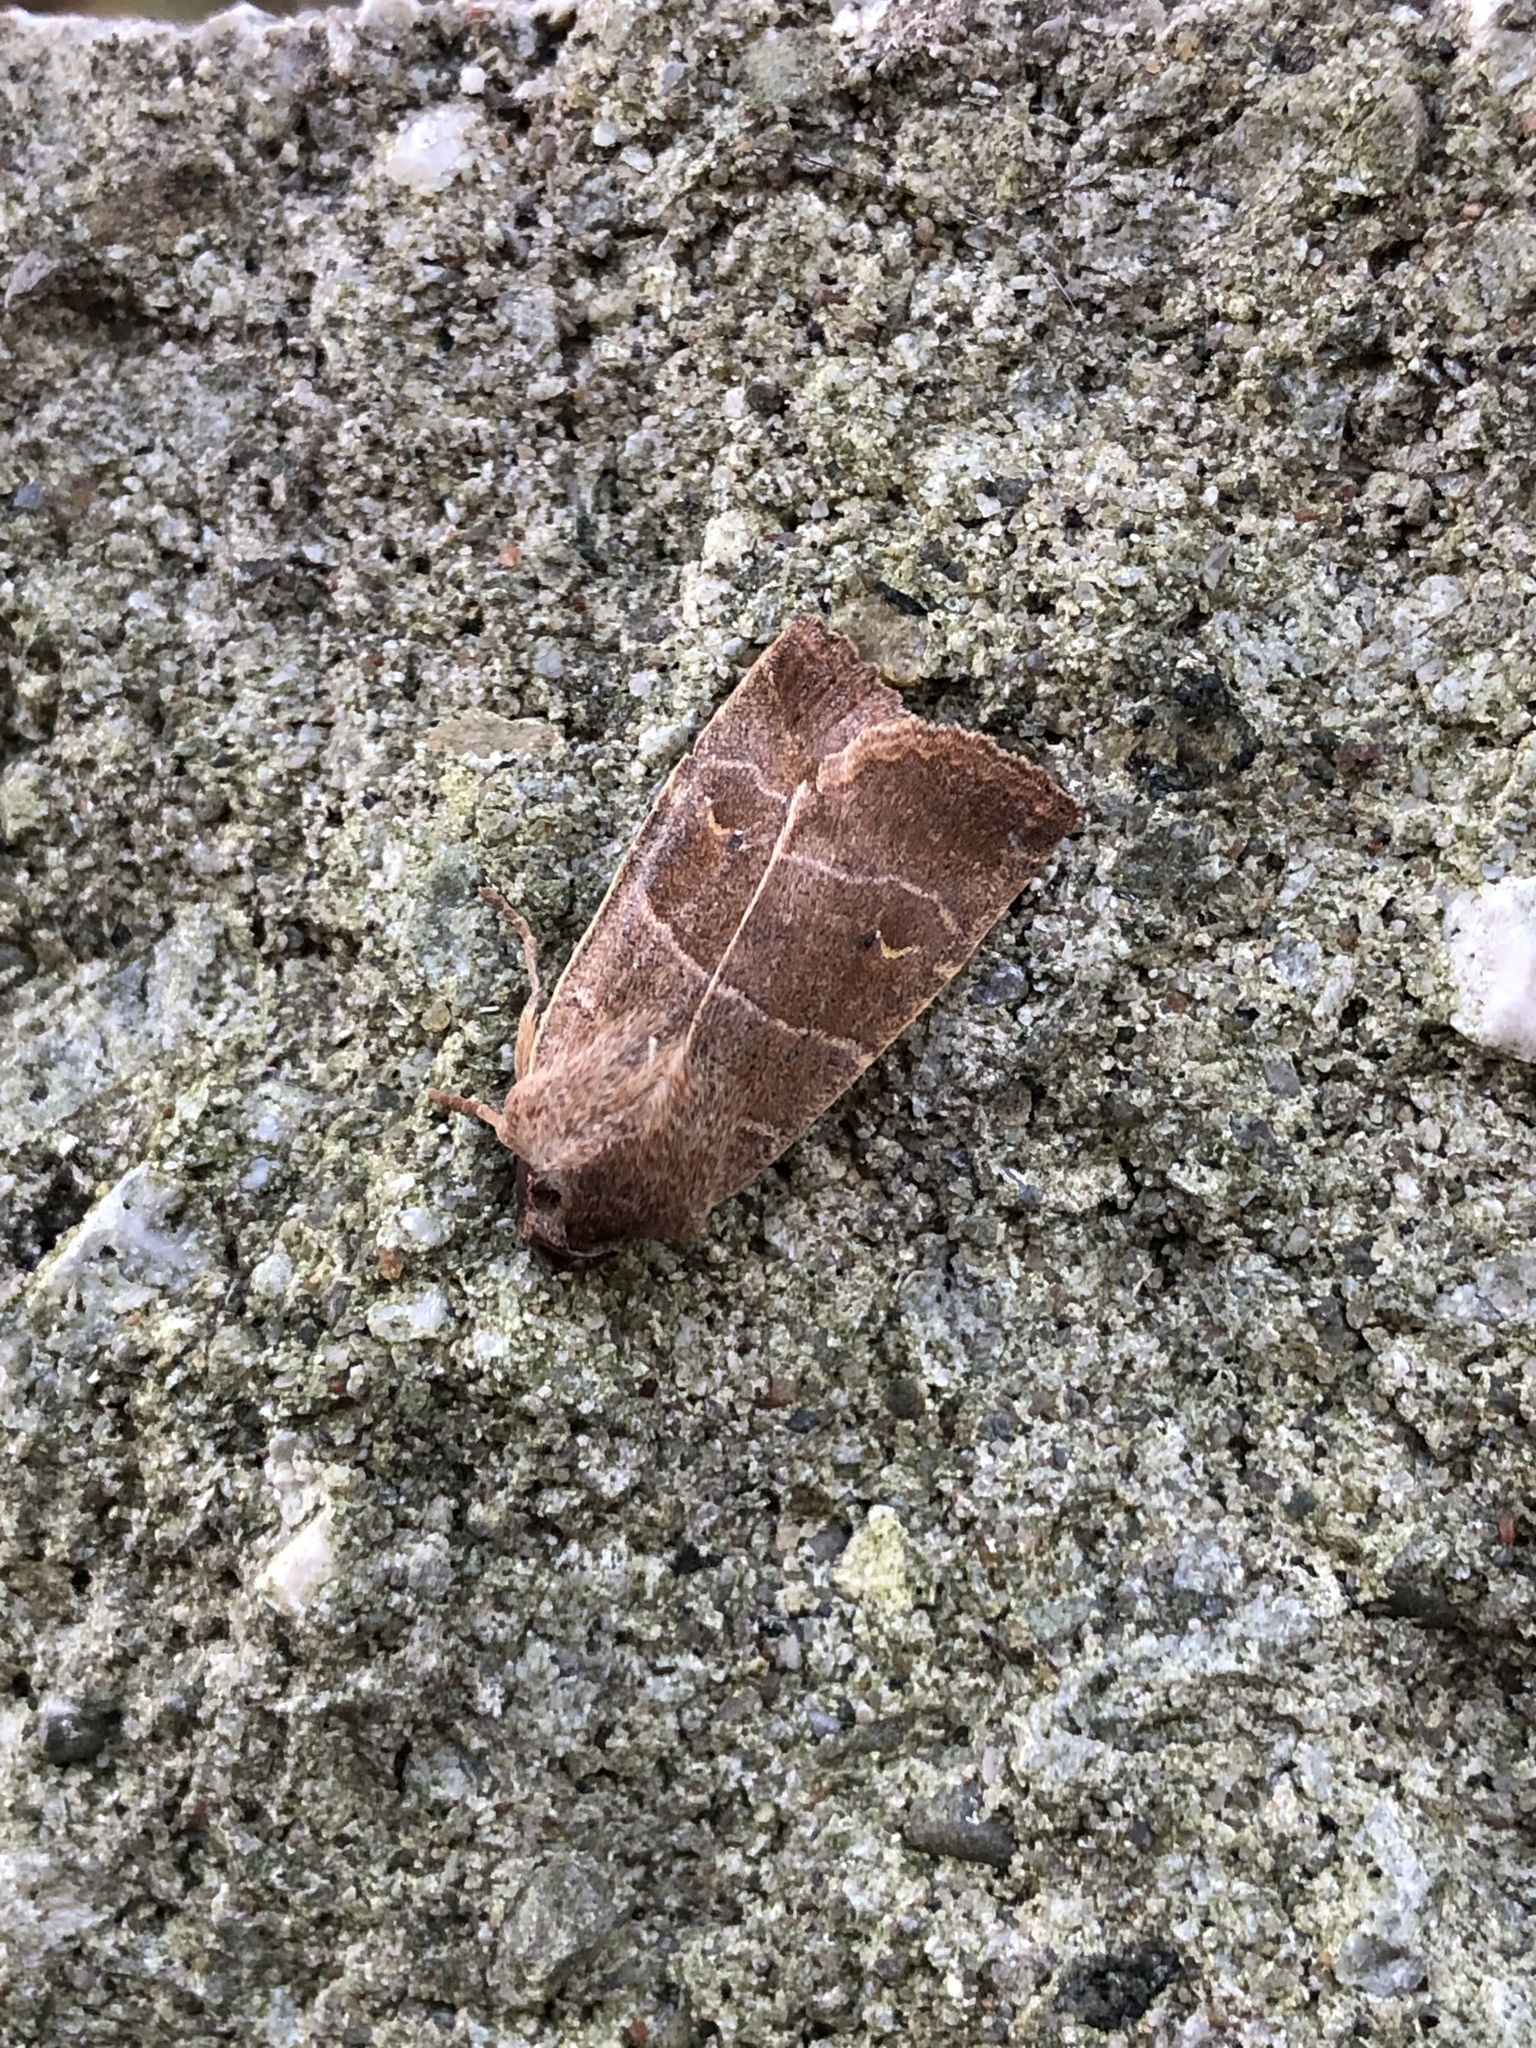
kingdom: Animalia
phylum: Arthropoda
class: Insecta
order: Lepidoptera
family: Noctuidae
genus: Eupsilia
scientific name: Eupsilia morrisoni
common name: Morrison's sallow
